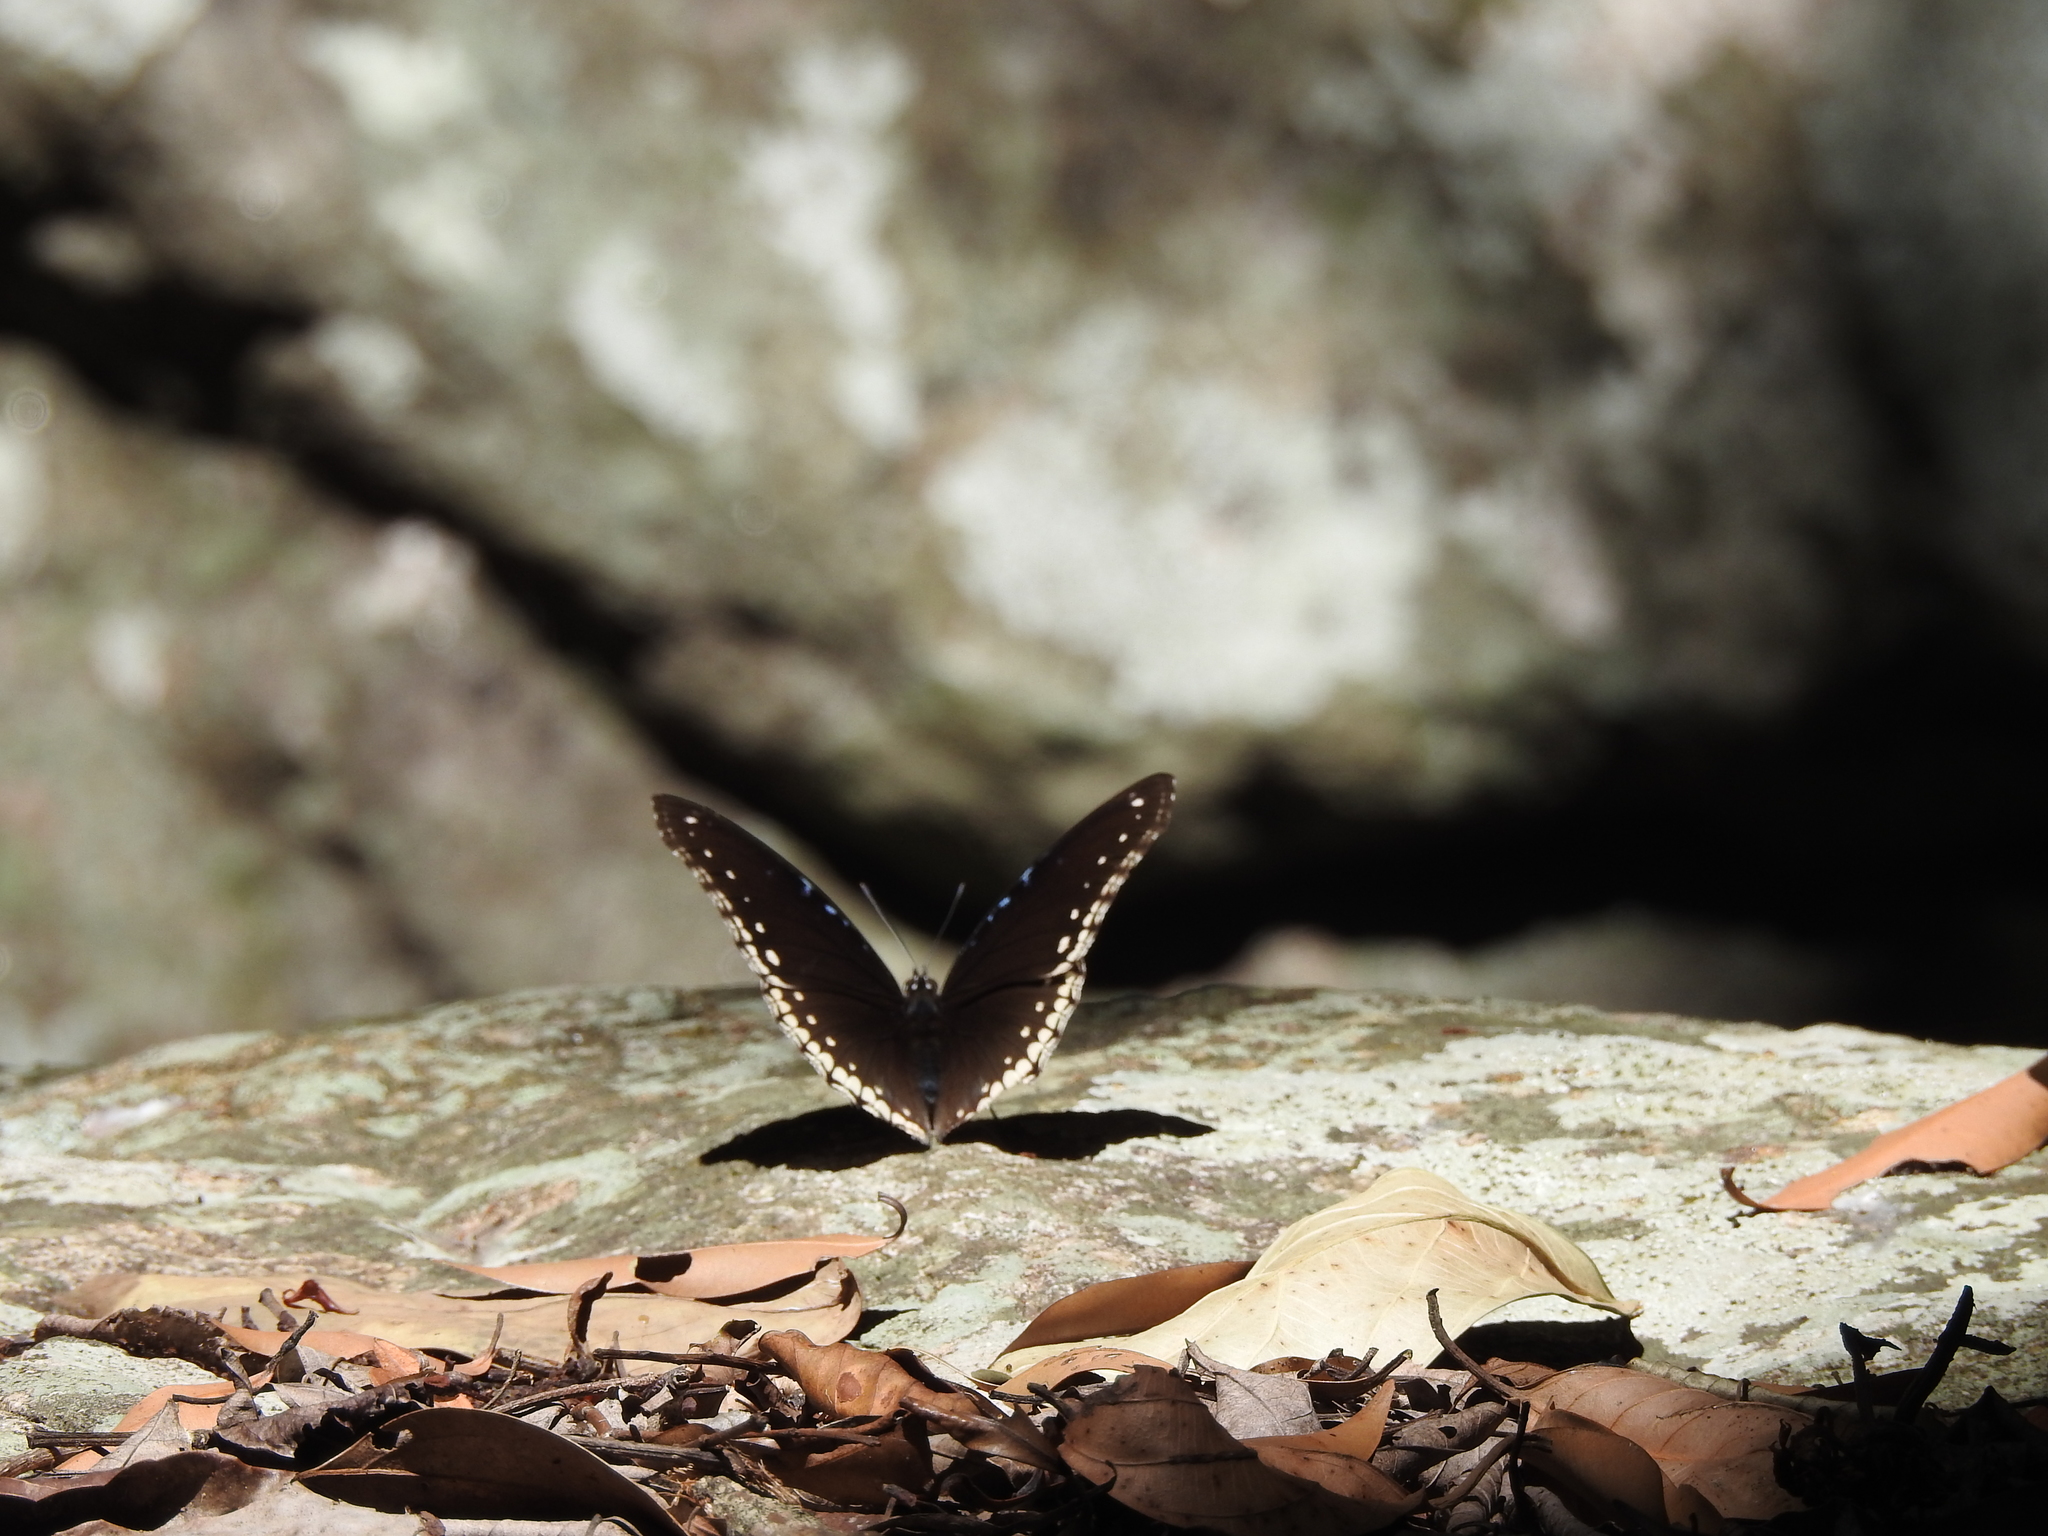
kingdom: Animalia
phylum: Arthropoda
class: Insecta
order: Lepidoptera
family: Nymphalidae
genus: Hypolimnas
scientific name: Hypolimnas bolina
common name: Great eggfly
